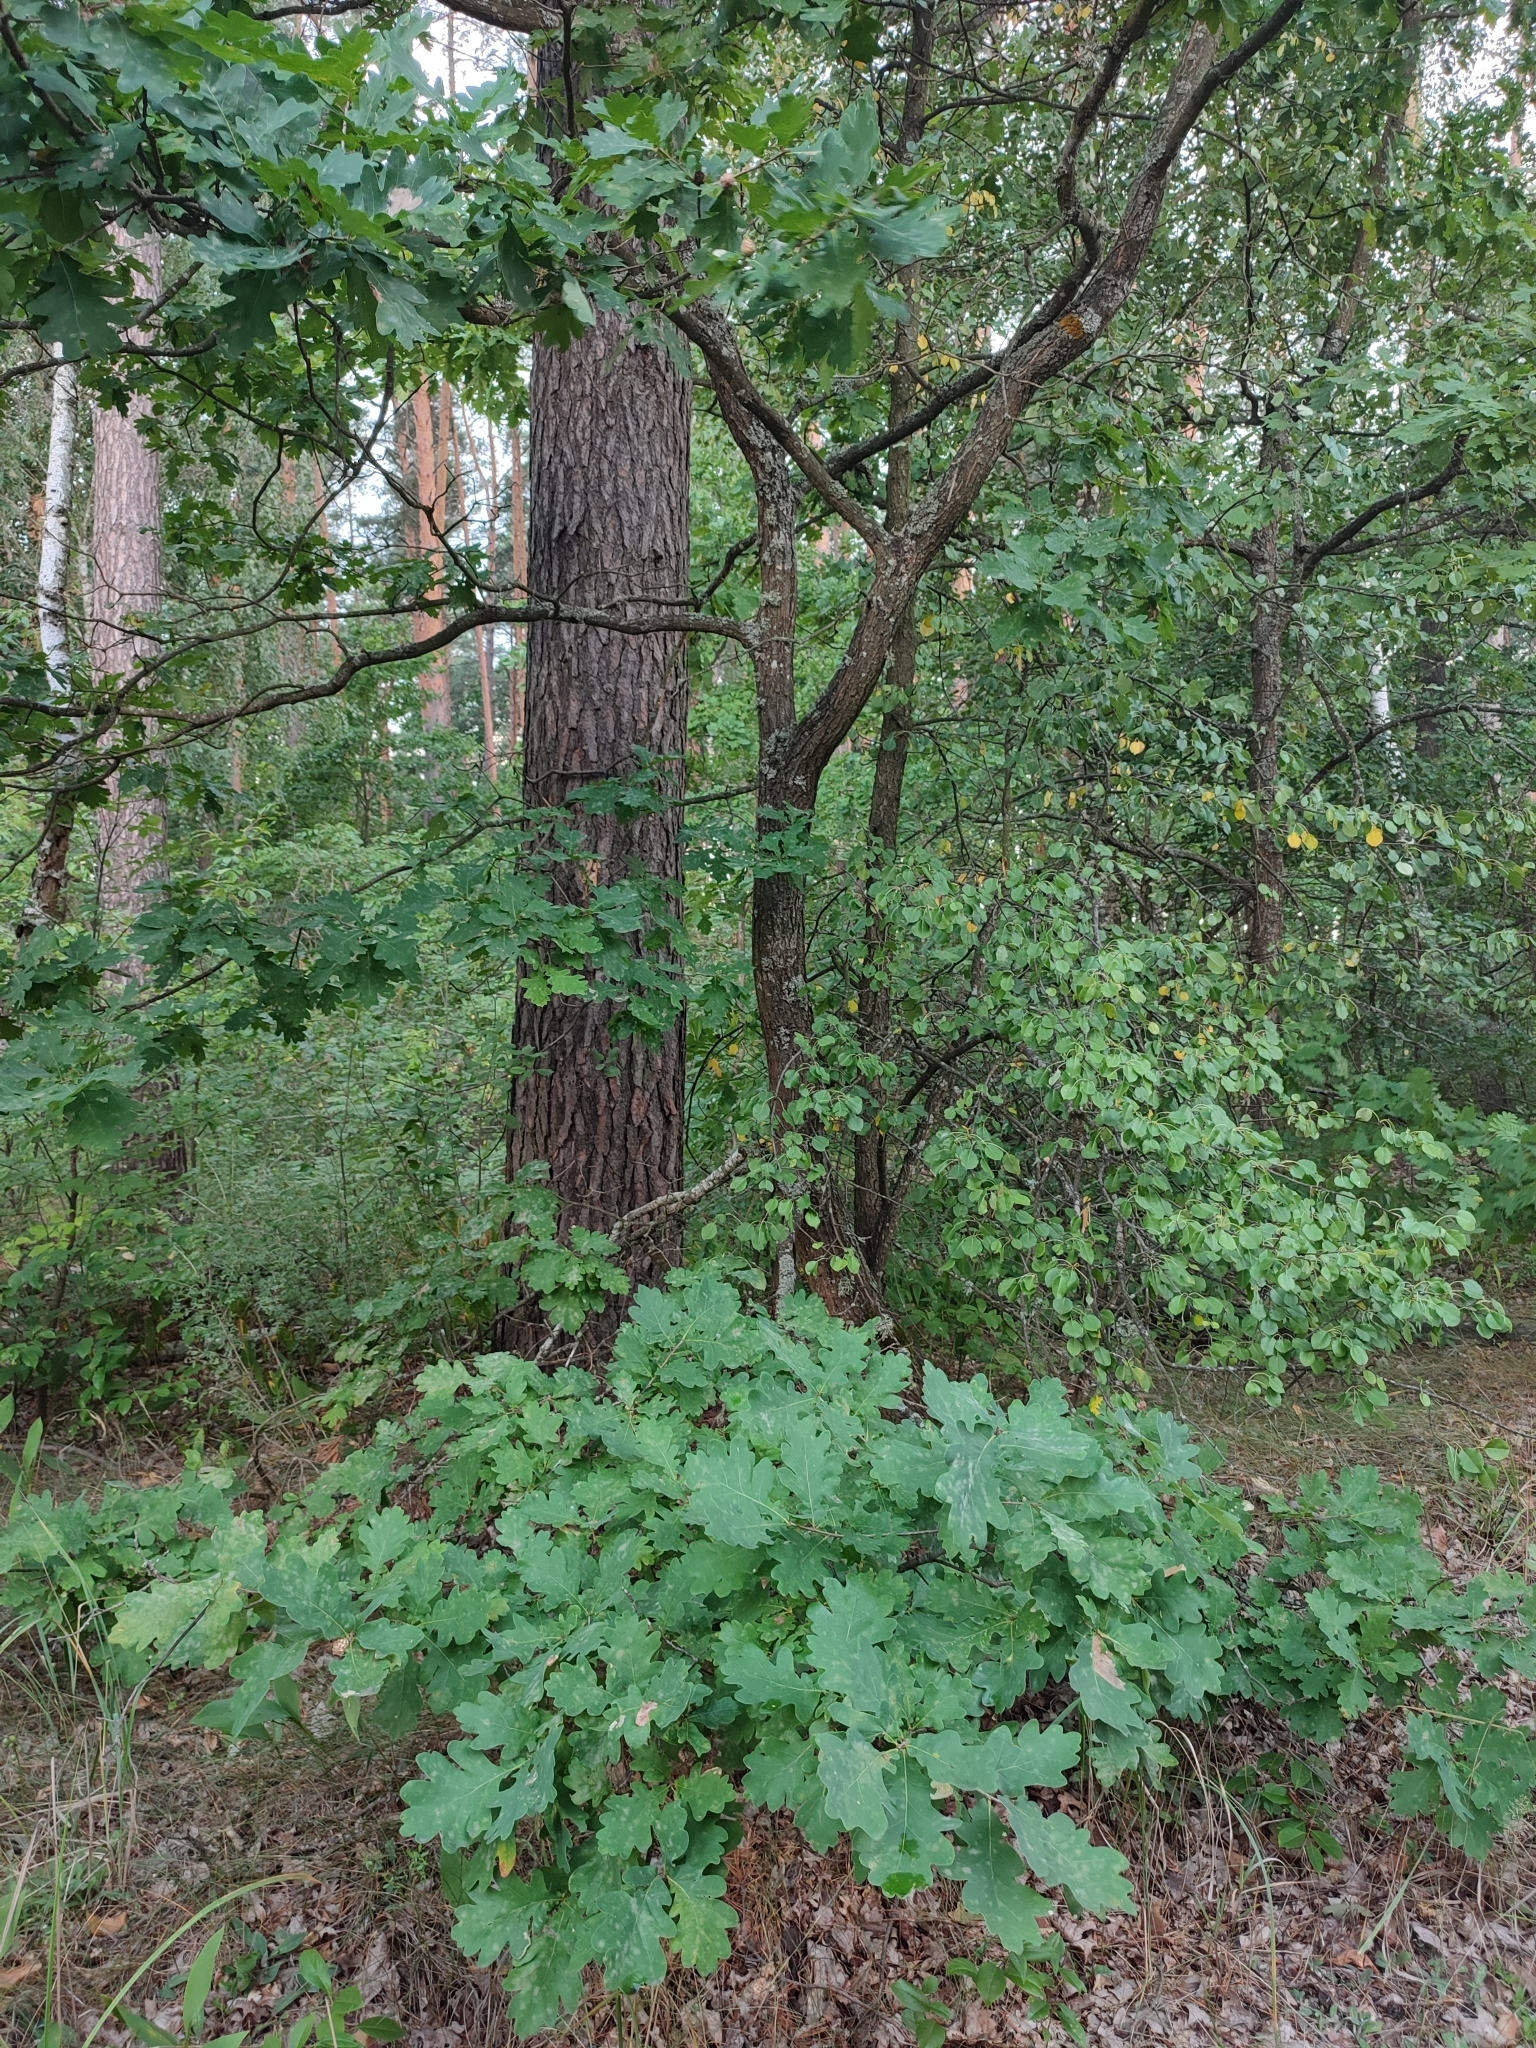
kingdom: Plantae
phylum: Tracheophyta
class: Magnoliopsida
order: Fagales
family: Fagaceae
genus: Quercus
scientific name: Quercus robur
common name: Pedunculate oak
